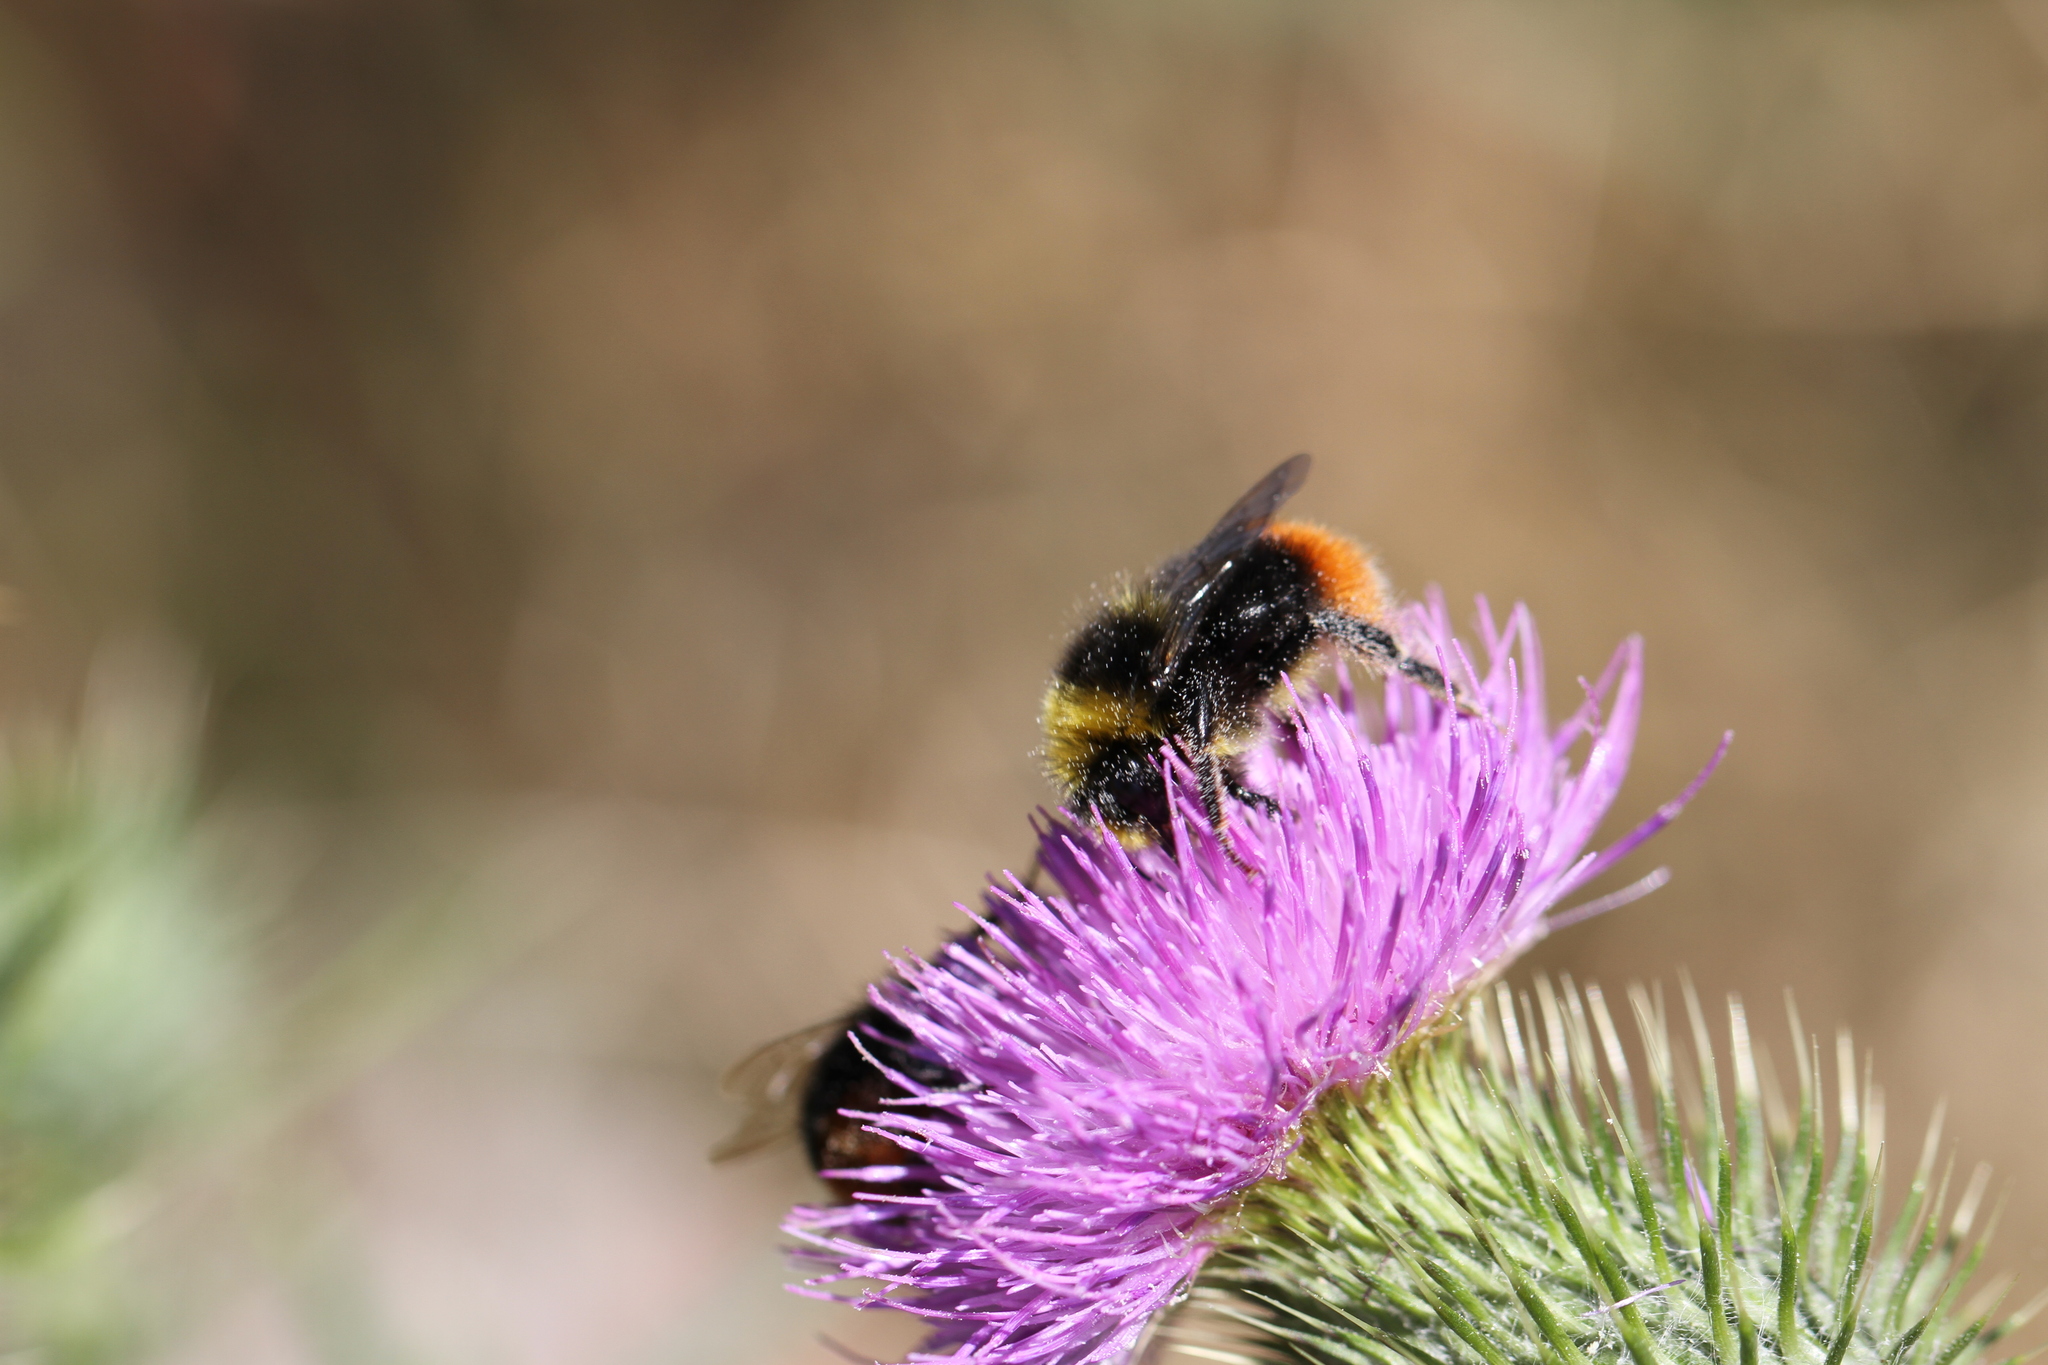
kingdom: Animalia
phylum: Arthropoda
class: Insecta
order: Hymenoptera
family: Apidae
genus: Bombus
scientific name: Bombus lapidarius
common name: Large red-tailed humble-bee
